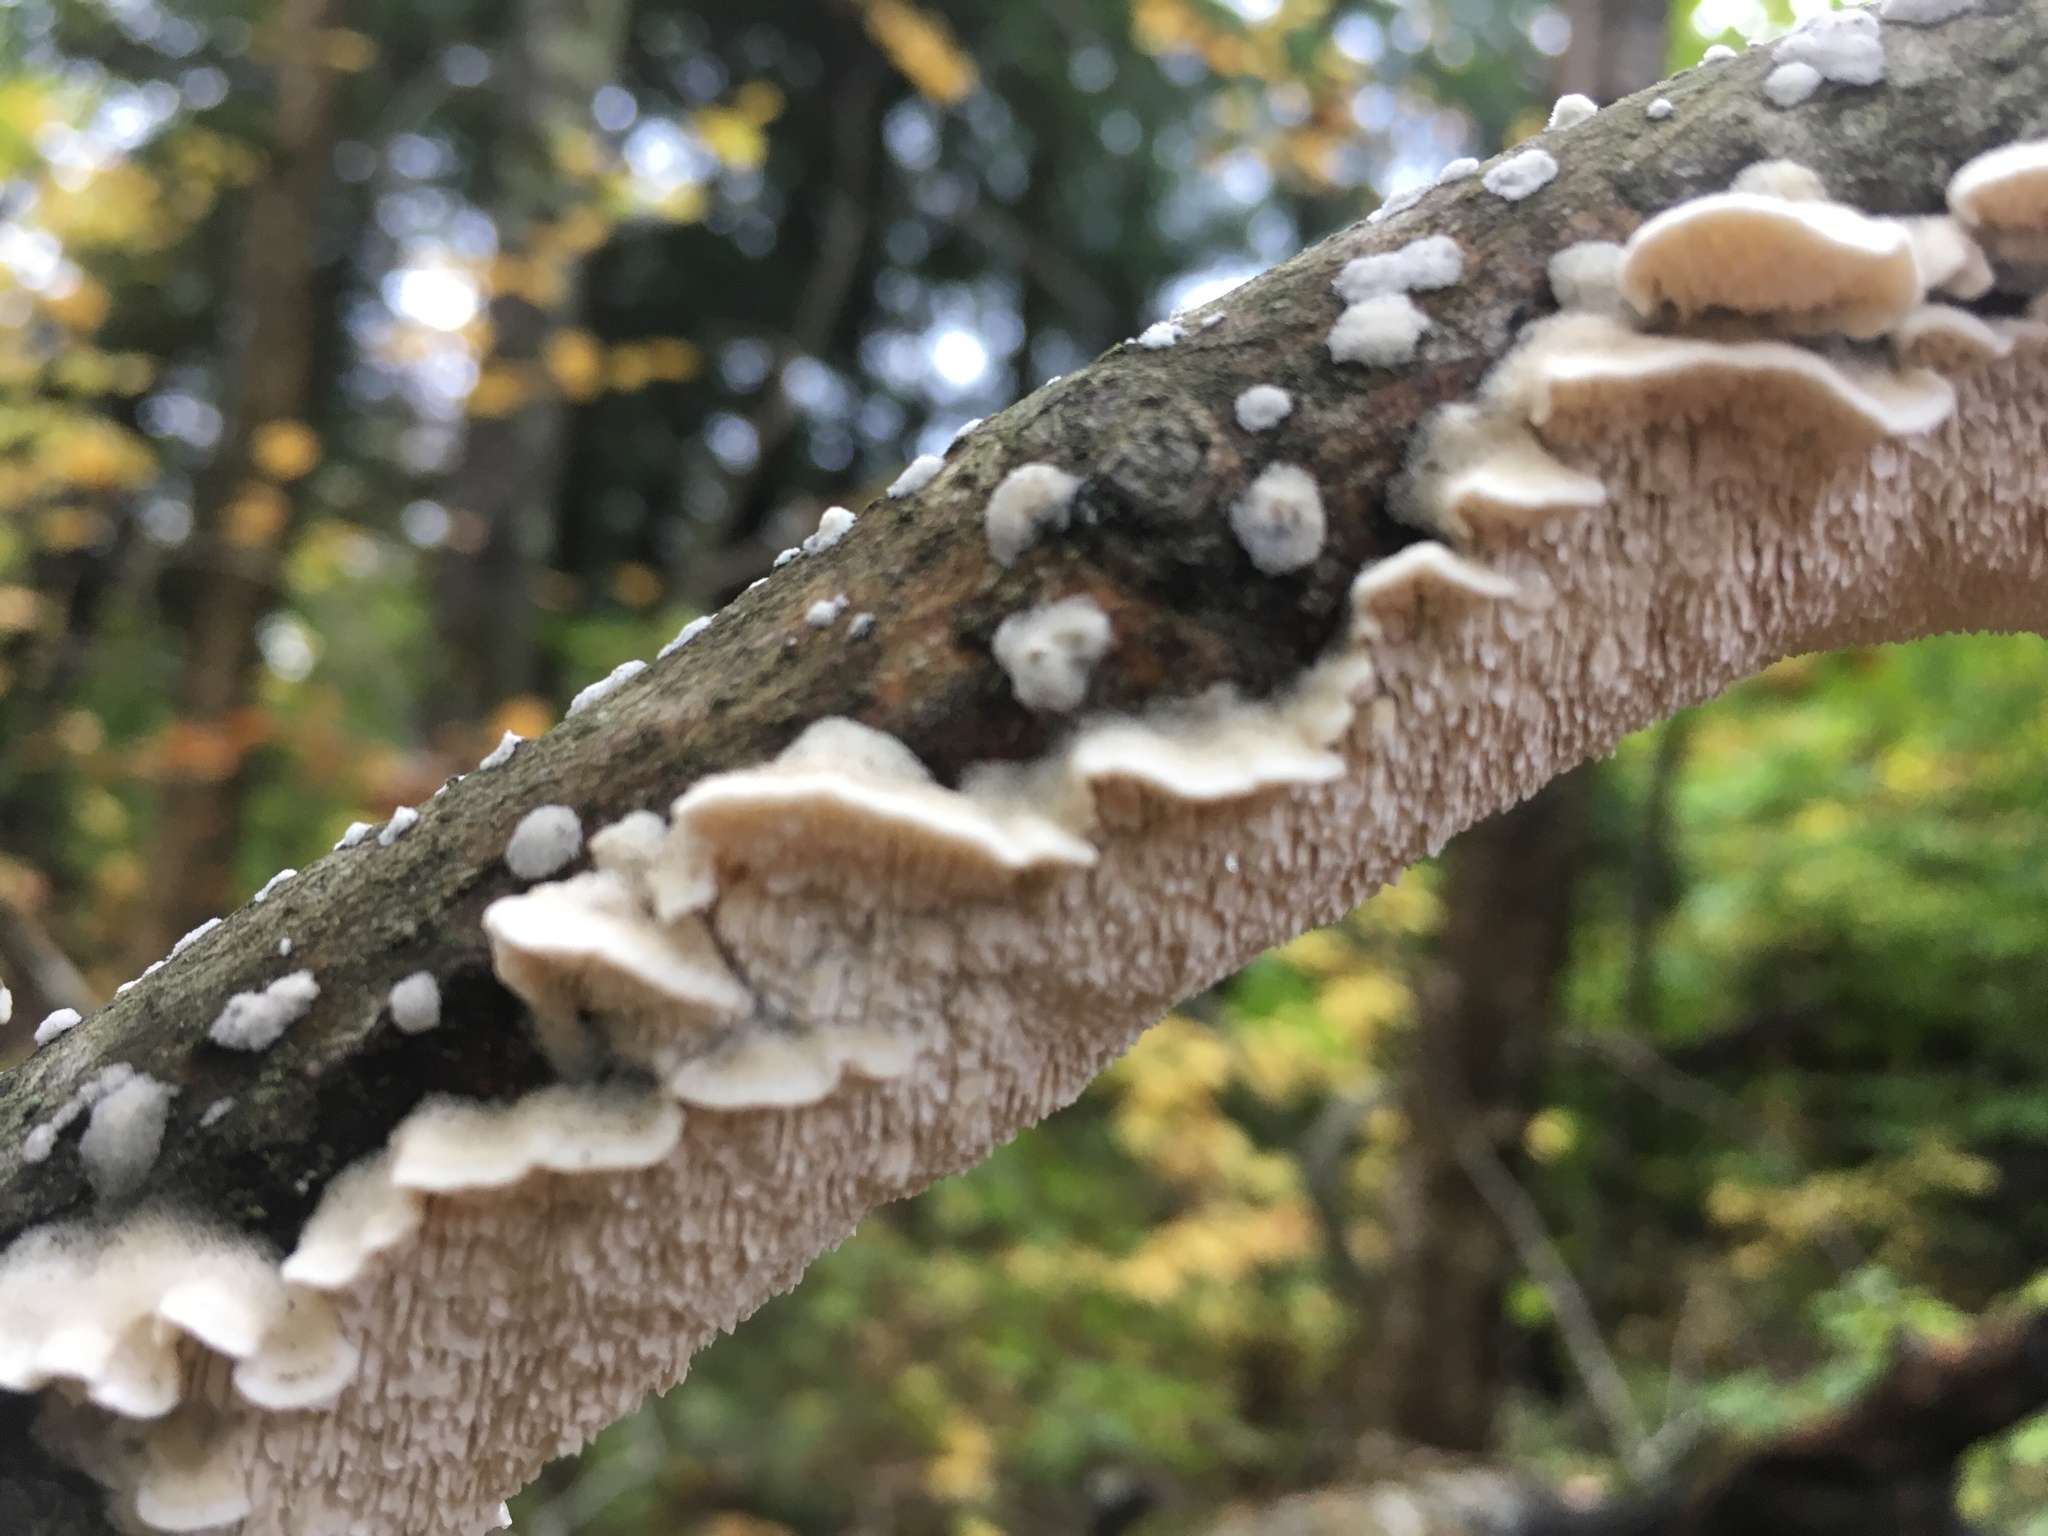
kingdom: Fungi
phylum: Basidiomycota
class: Agaricomycetes
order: Polyporales
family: Irpicaceae
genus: Irpex
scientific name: Irpex lacteus
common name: Milk-white toothed polypore
